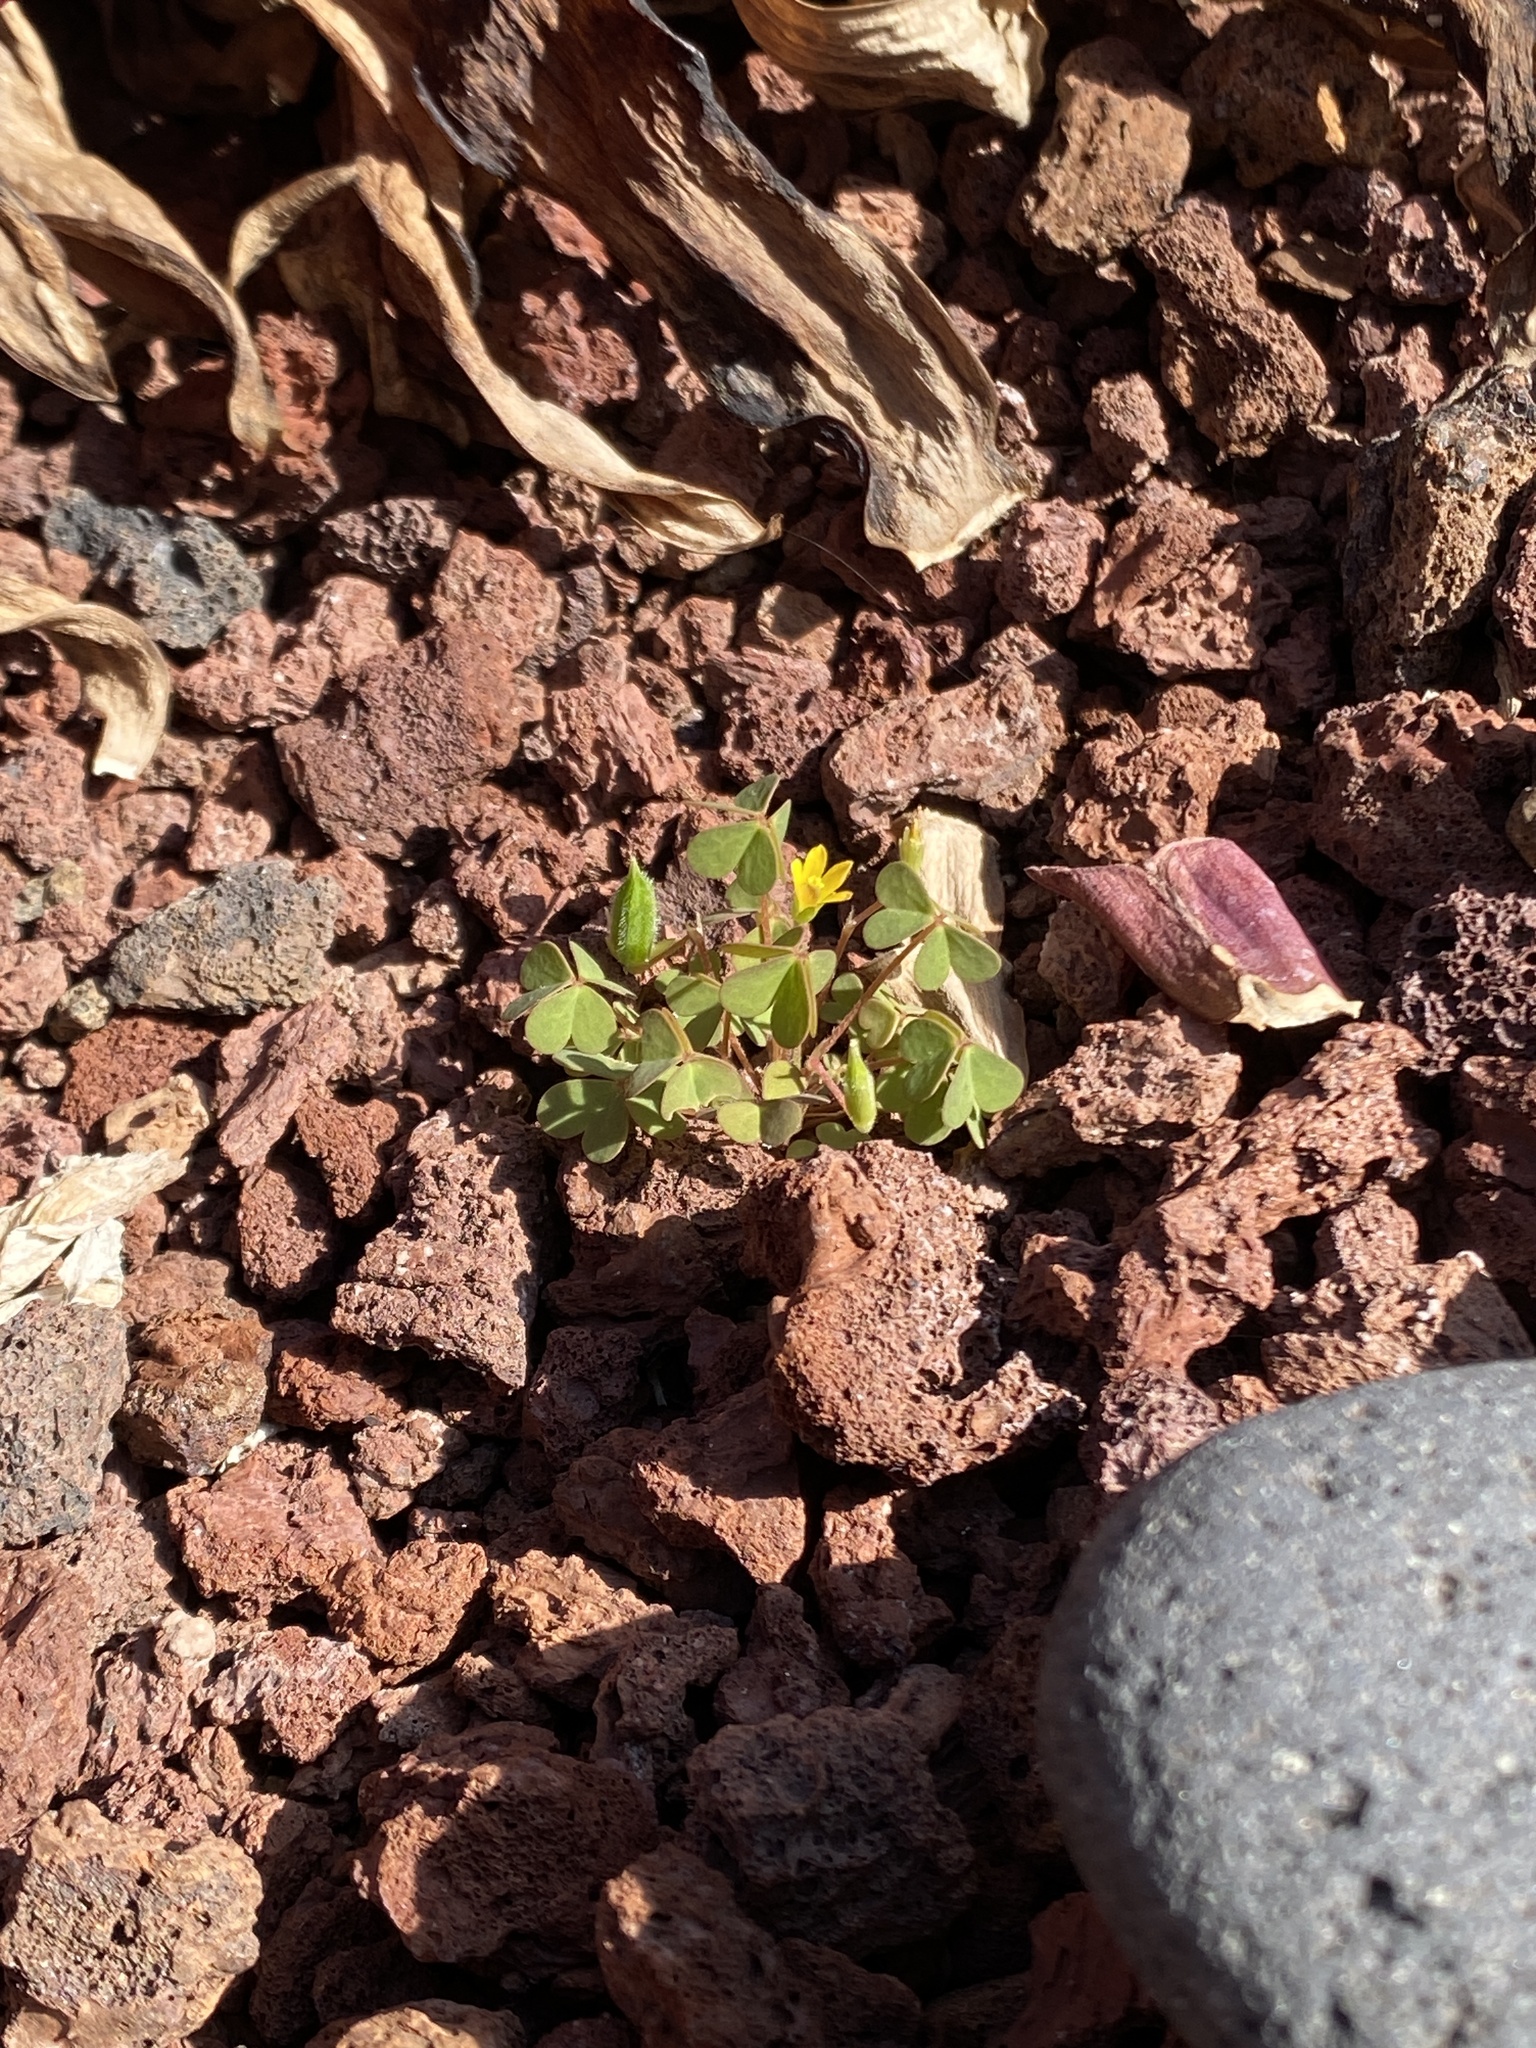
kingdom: Plantae
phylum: Tracheophyta
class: Magnoliopsida
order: Oxalidales
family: Oxalidaceae
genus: Oxalis
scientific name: Oxalis corniculata
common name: Procumbent yellow-sorrel
